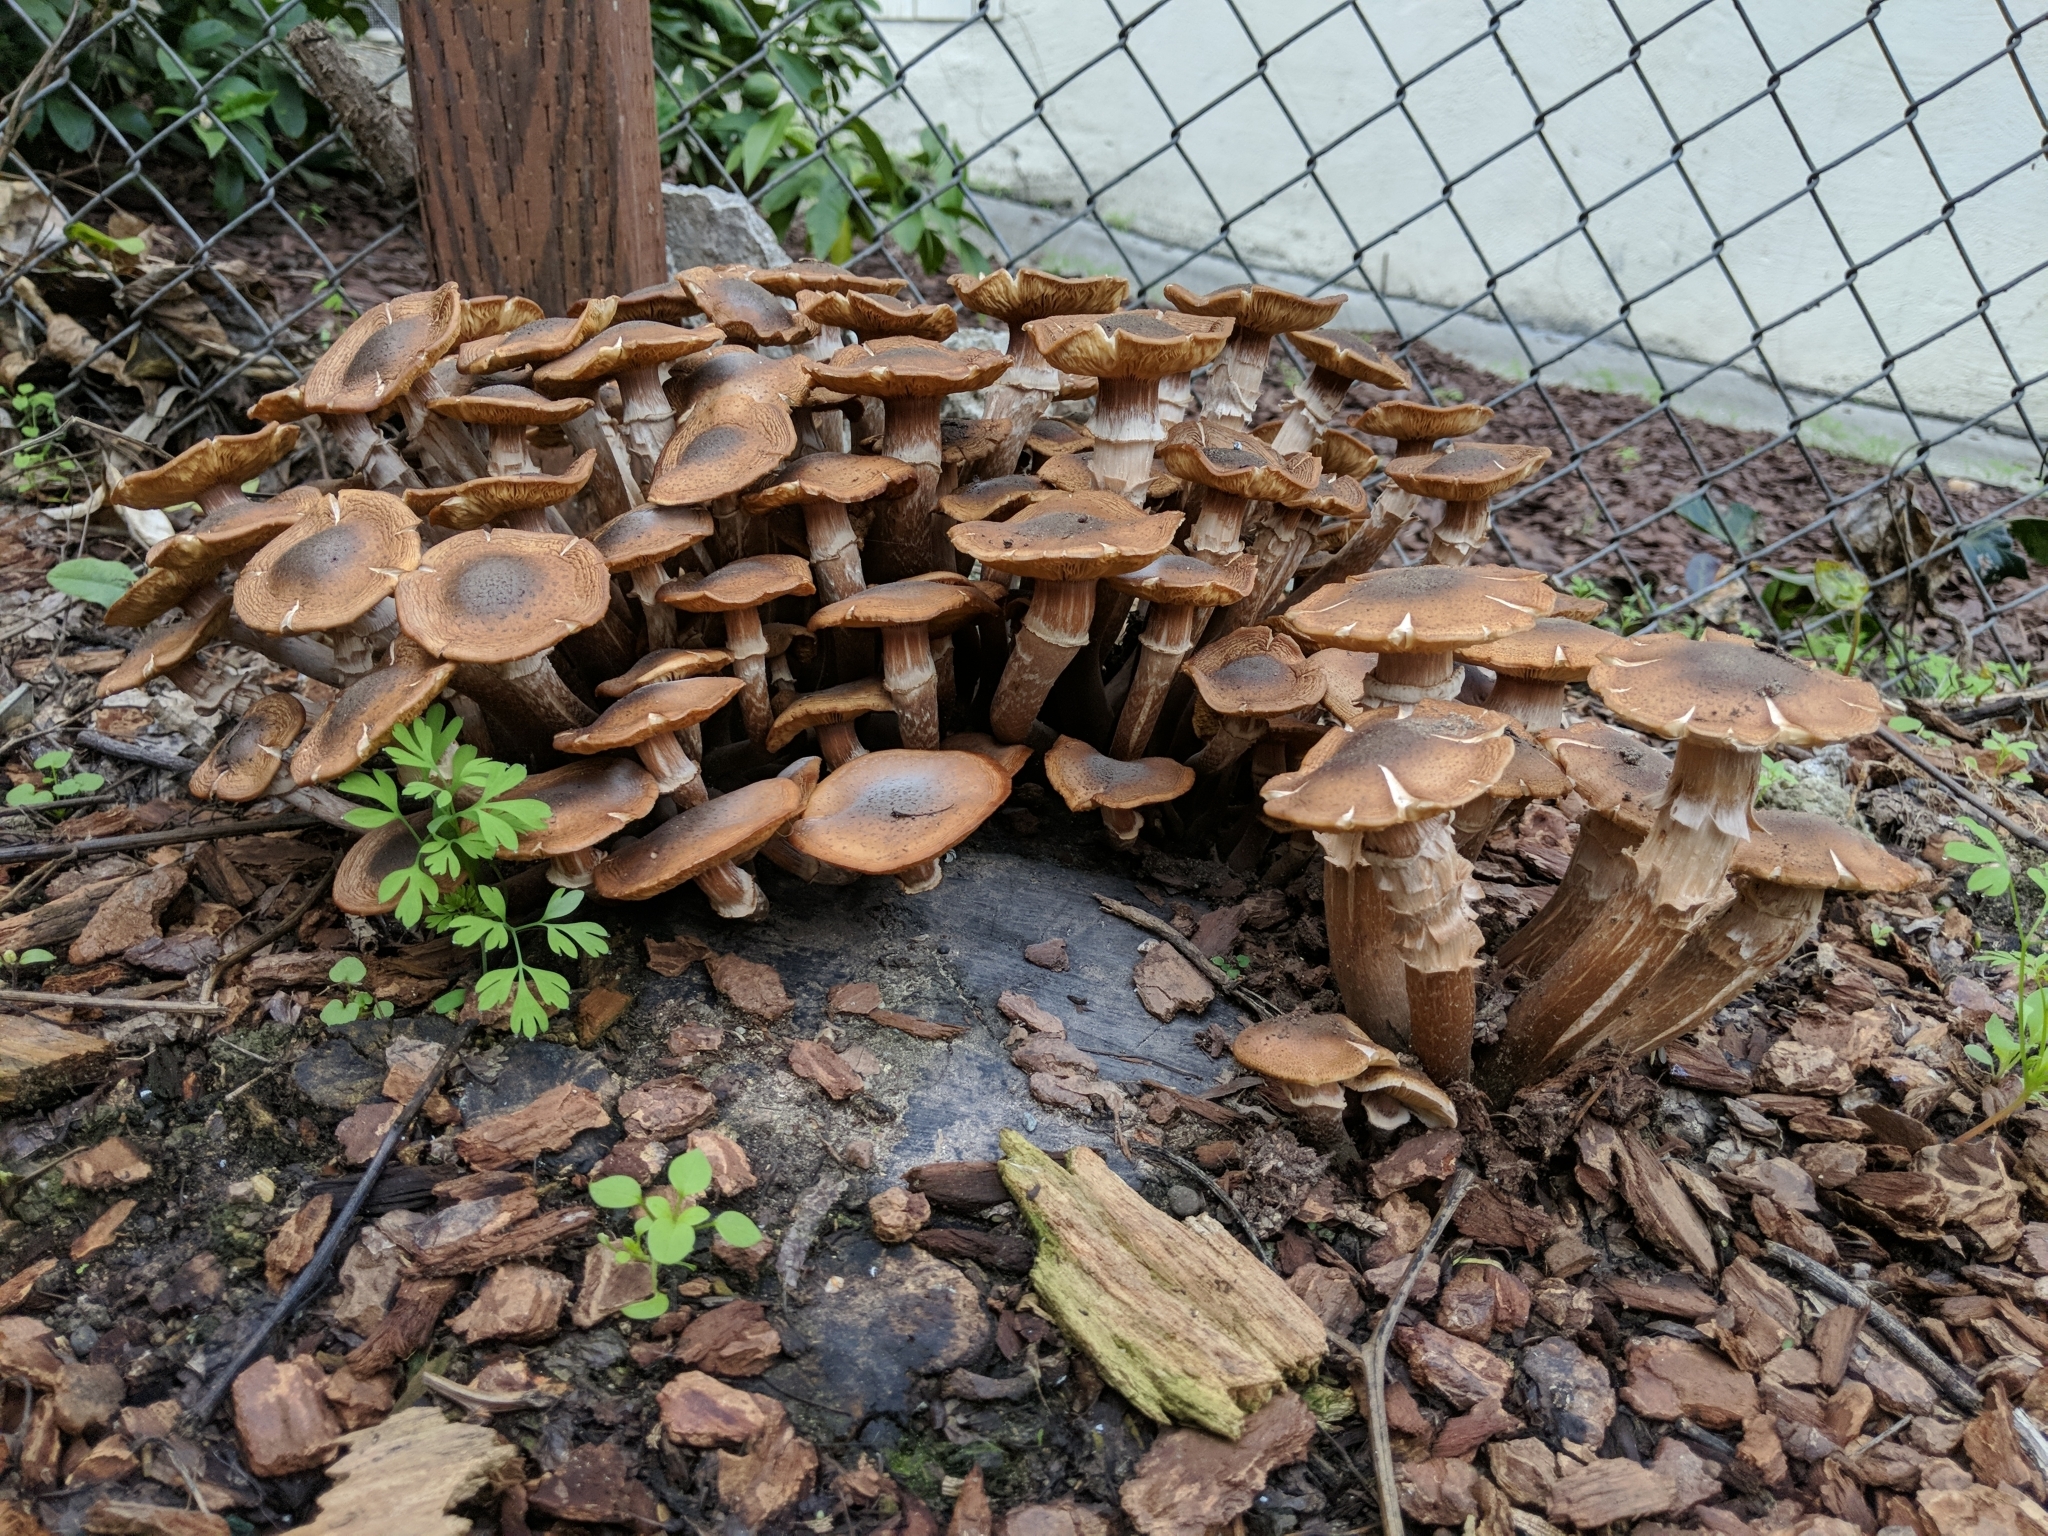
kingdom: Fungi
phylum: Basidiomycota
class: Agaricomycetes
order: Agaricales
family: Physalacriaceae
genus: Armillaria
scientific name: Armillaria mellea
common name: Honey fungus
